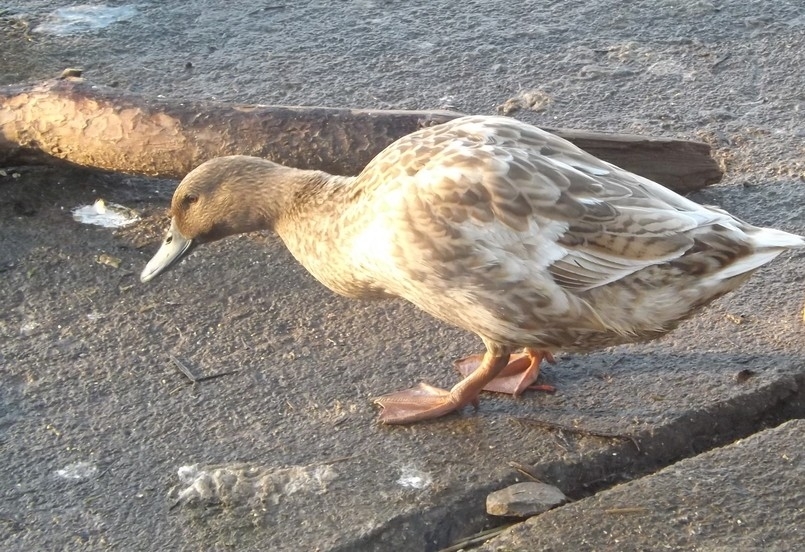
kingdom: Animalia
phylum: Chordata
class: Aves
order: Anseriformes
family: Anatidae
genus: Anas
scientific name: Anas platyrhynchos
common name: Mallard
